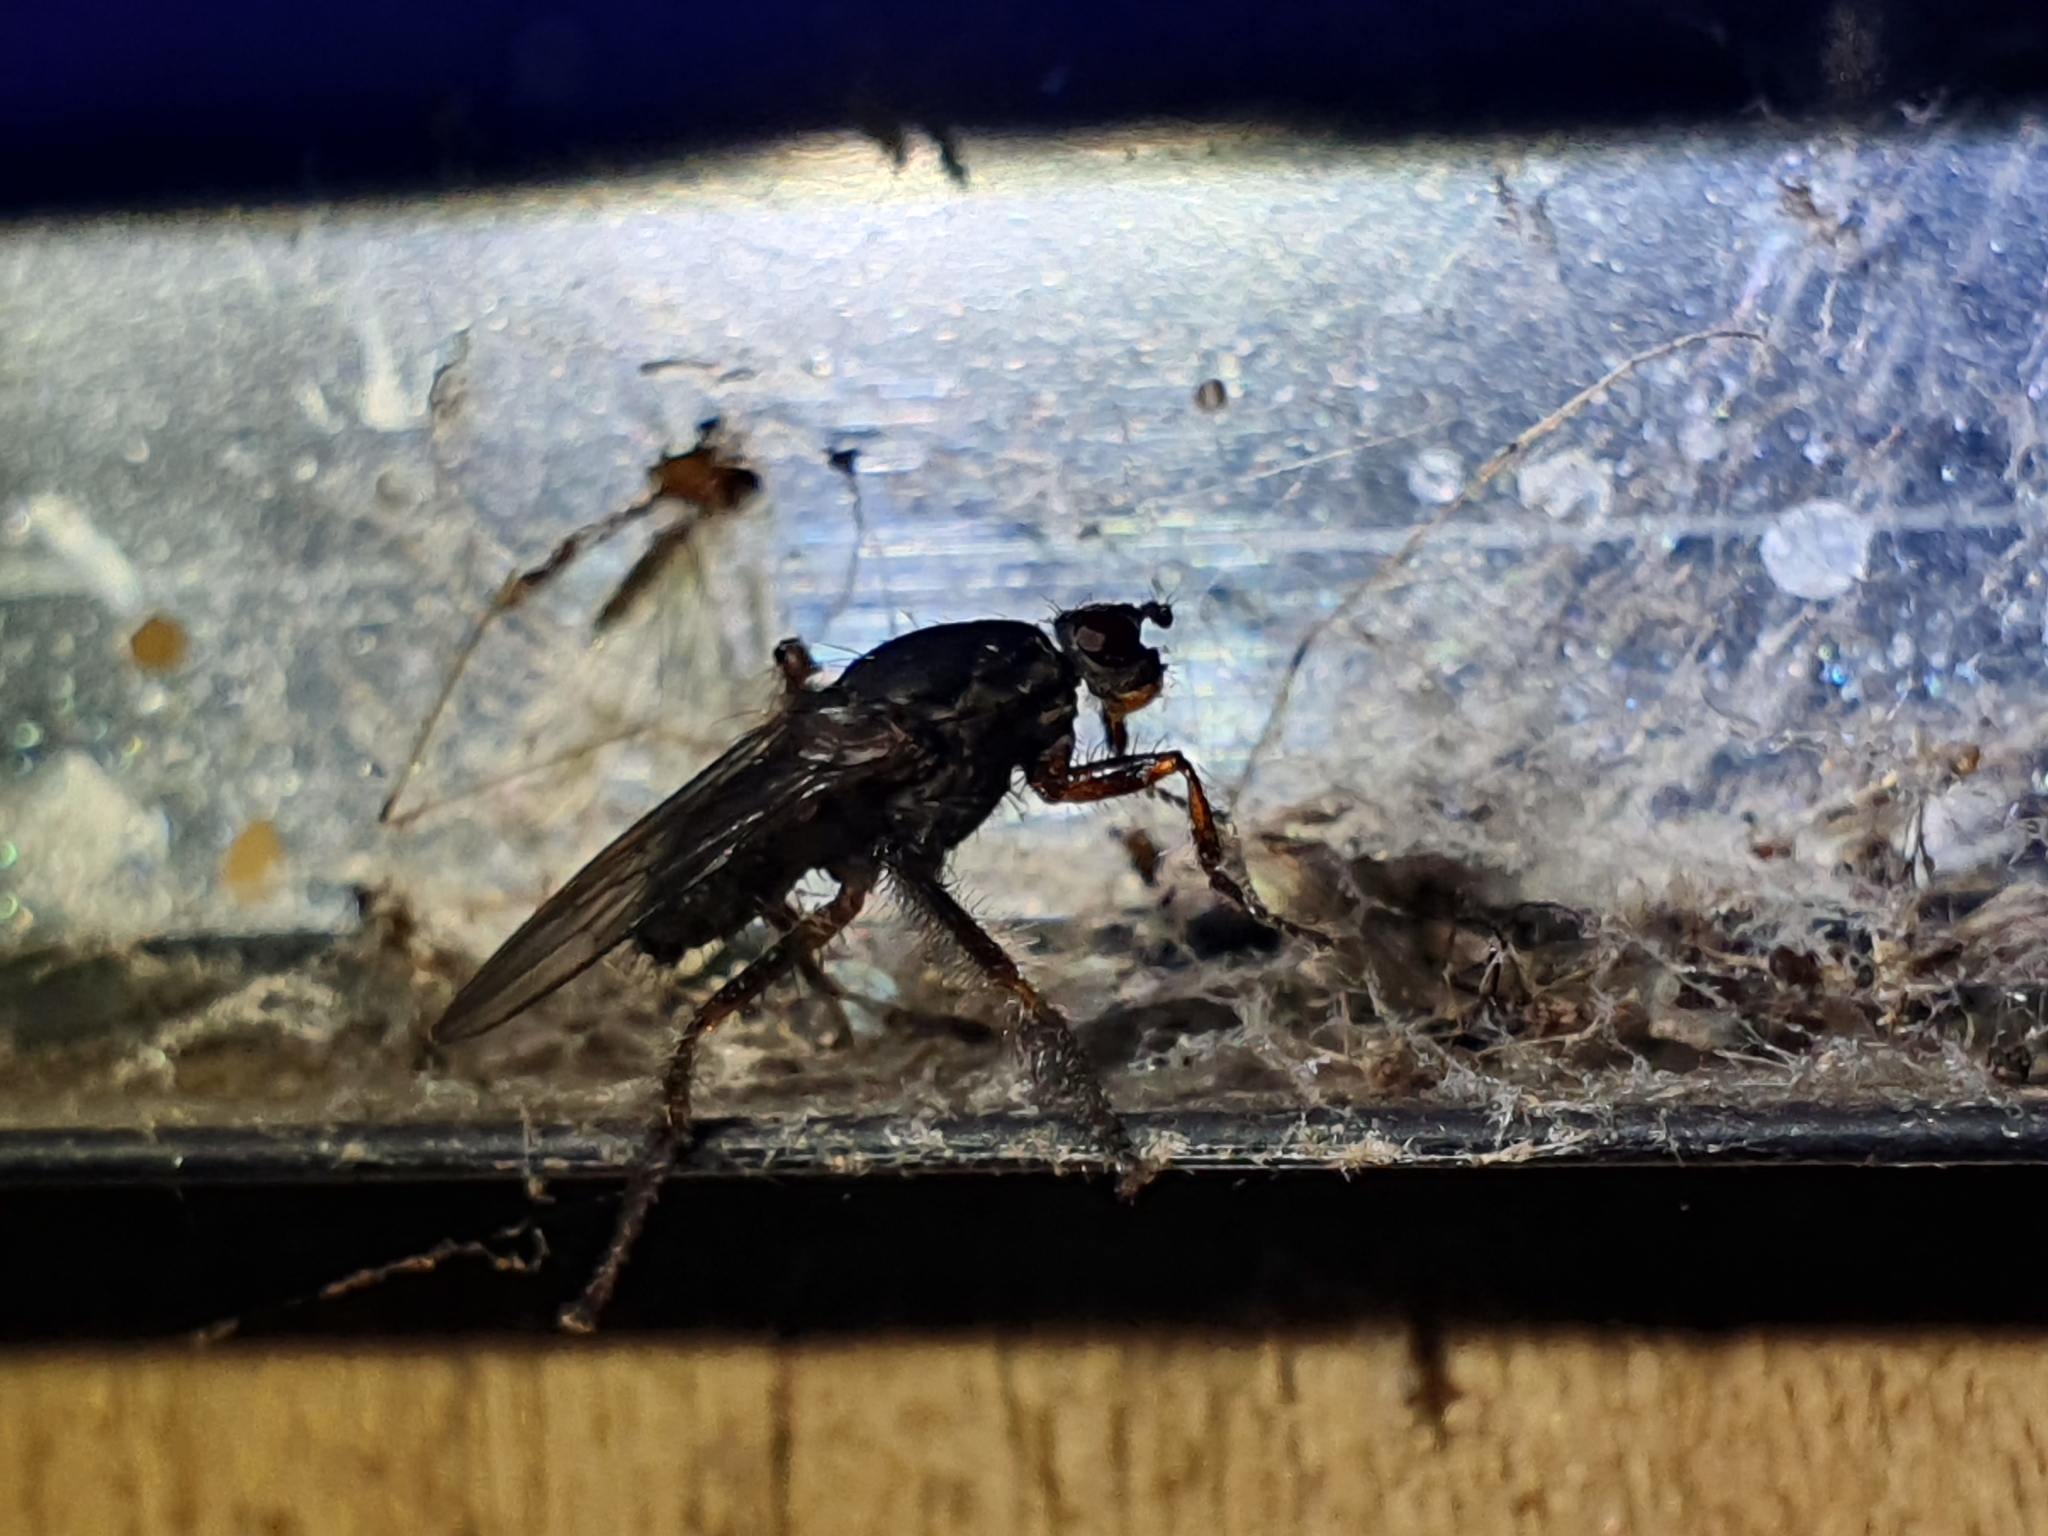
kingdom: Animalia
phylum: Arthropoda
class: Insecta
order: Diptera
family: Coelopidae
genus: Chaetocoelopa
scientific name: Chaetocoelopa littoralis
